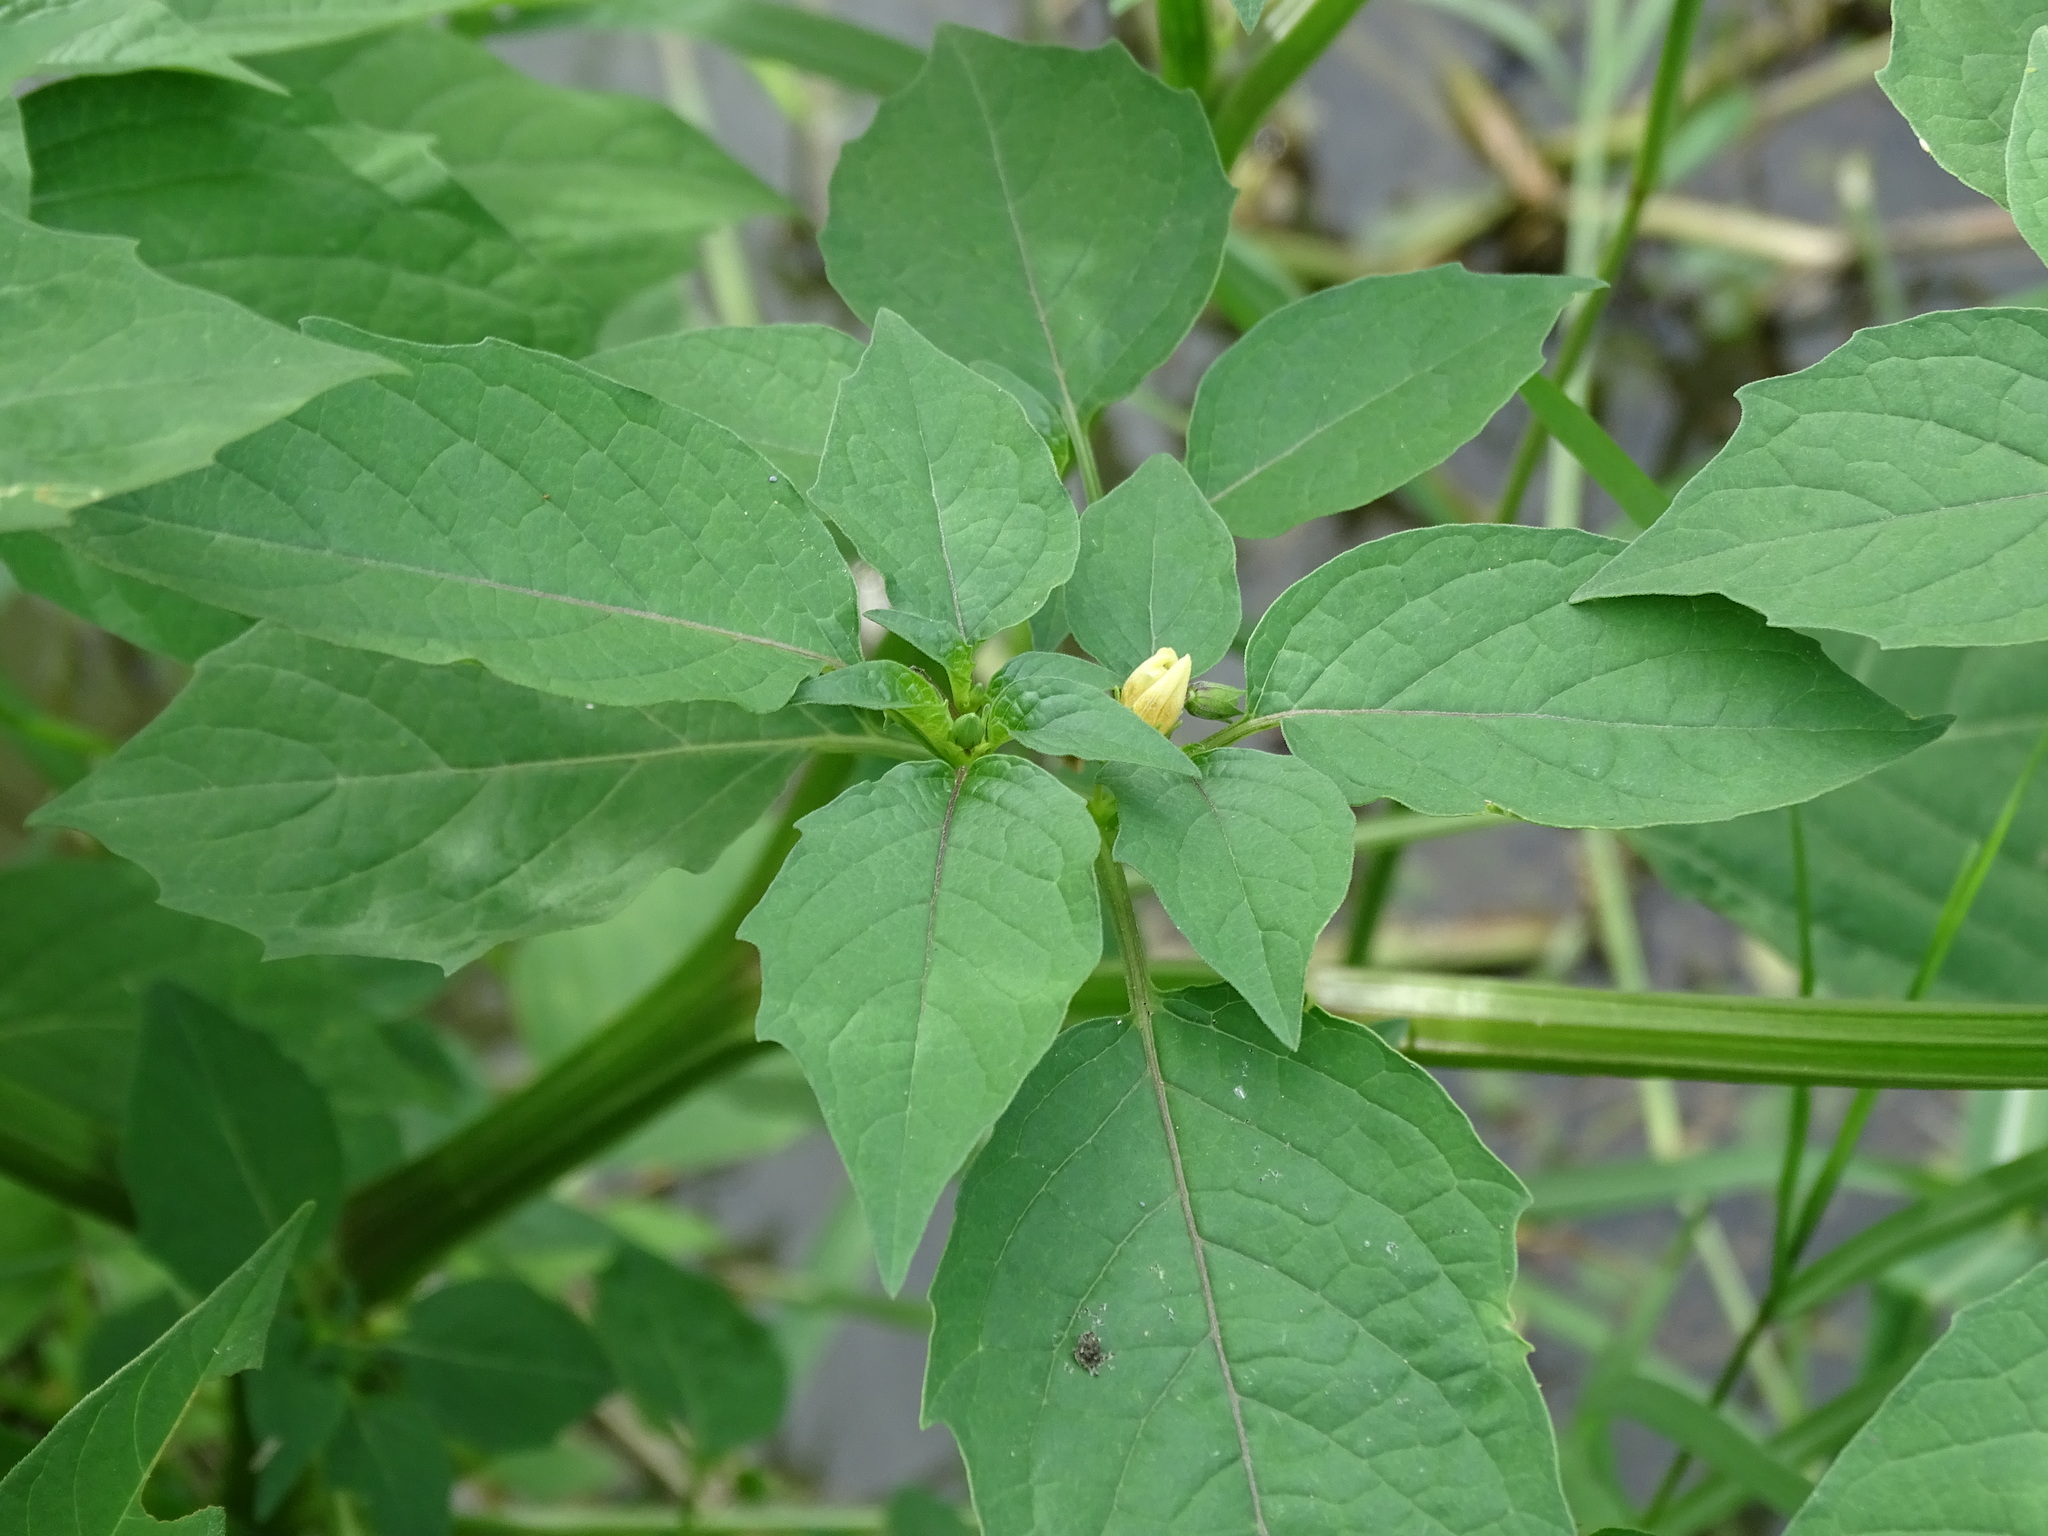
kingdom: Plantae
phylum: Tracheophyta
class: Magnoliopsida
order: Solanales
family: Solanaceae
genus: Physalis
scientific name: Physalis angulata
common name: Angular winter-cherry
